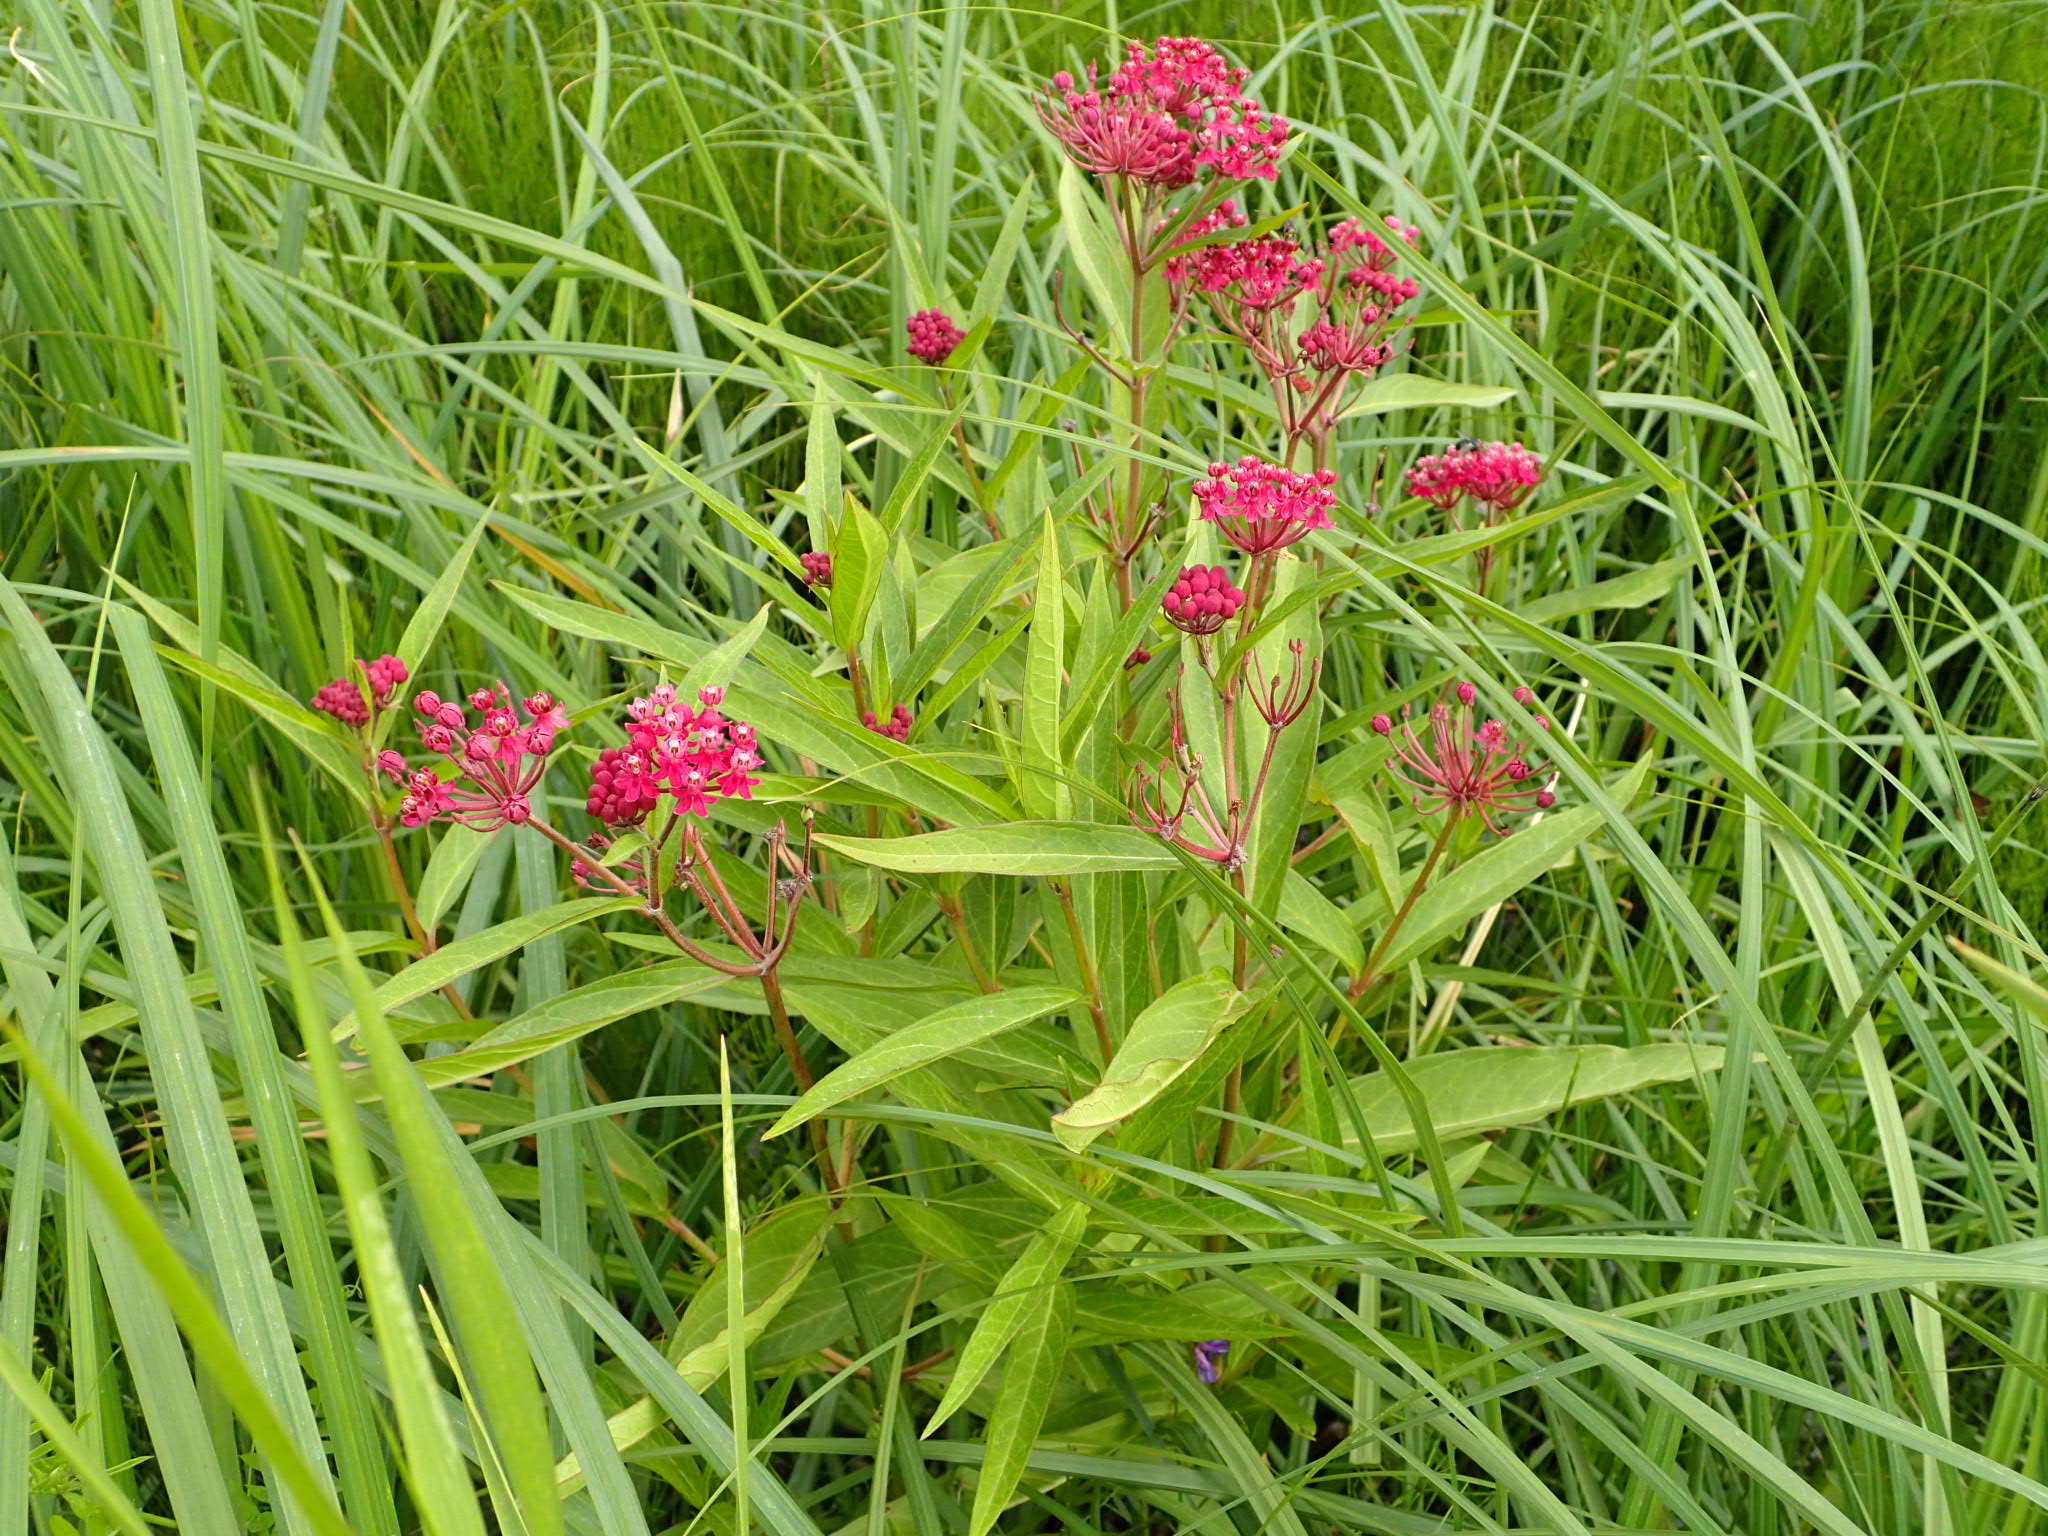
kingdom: Plantae
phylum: Tracheophyta
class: Magnoliopsida
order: Gentianales
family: Apocynaceae
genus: Asclepias
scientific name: Asclepias incarnata
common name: Swamp milkweed
